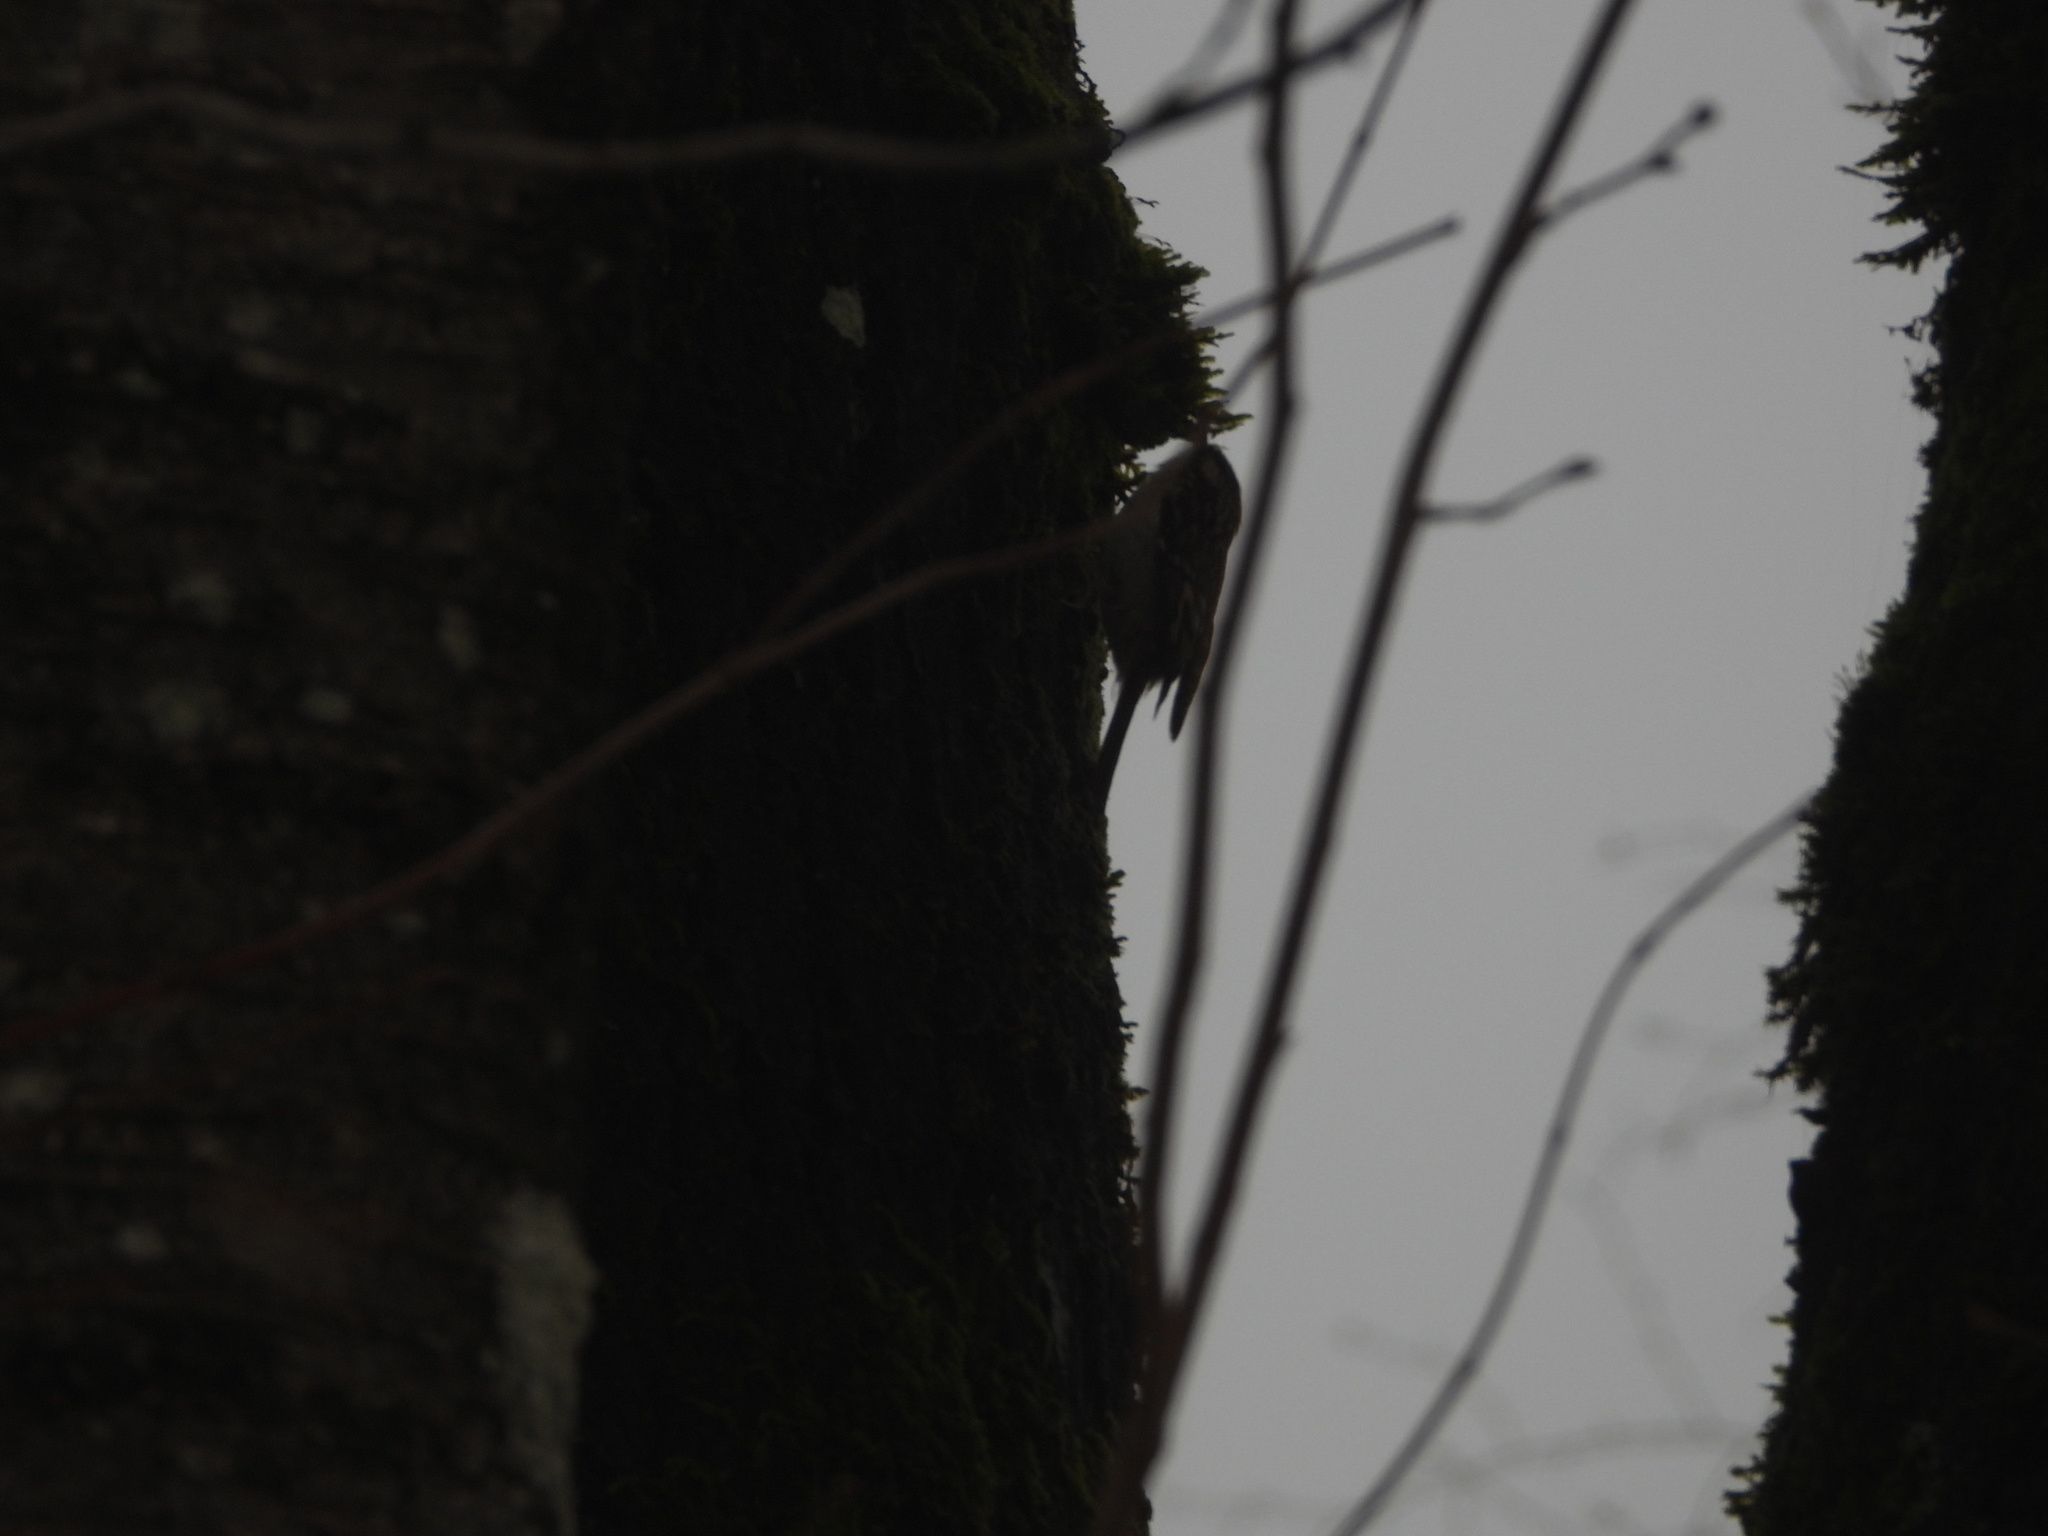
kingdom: Animalia
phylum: Chordata
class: Aves
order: Passeriformes
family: Certhiidae
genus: Certhia
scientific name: Certhia americana
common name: Brown creeper
